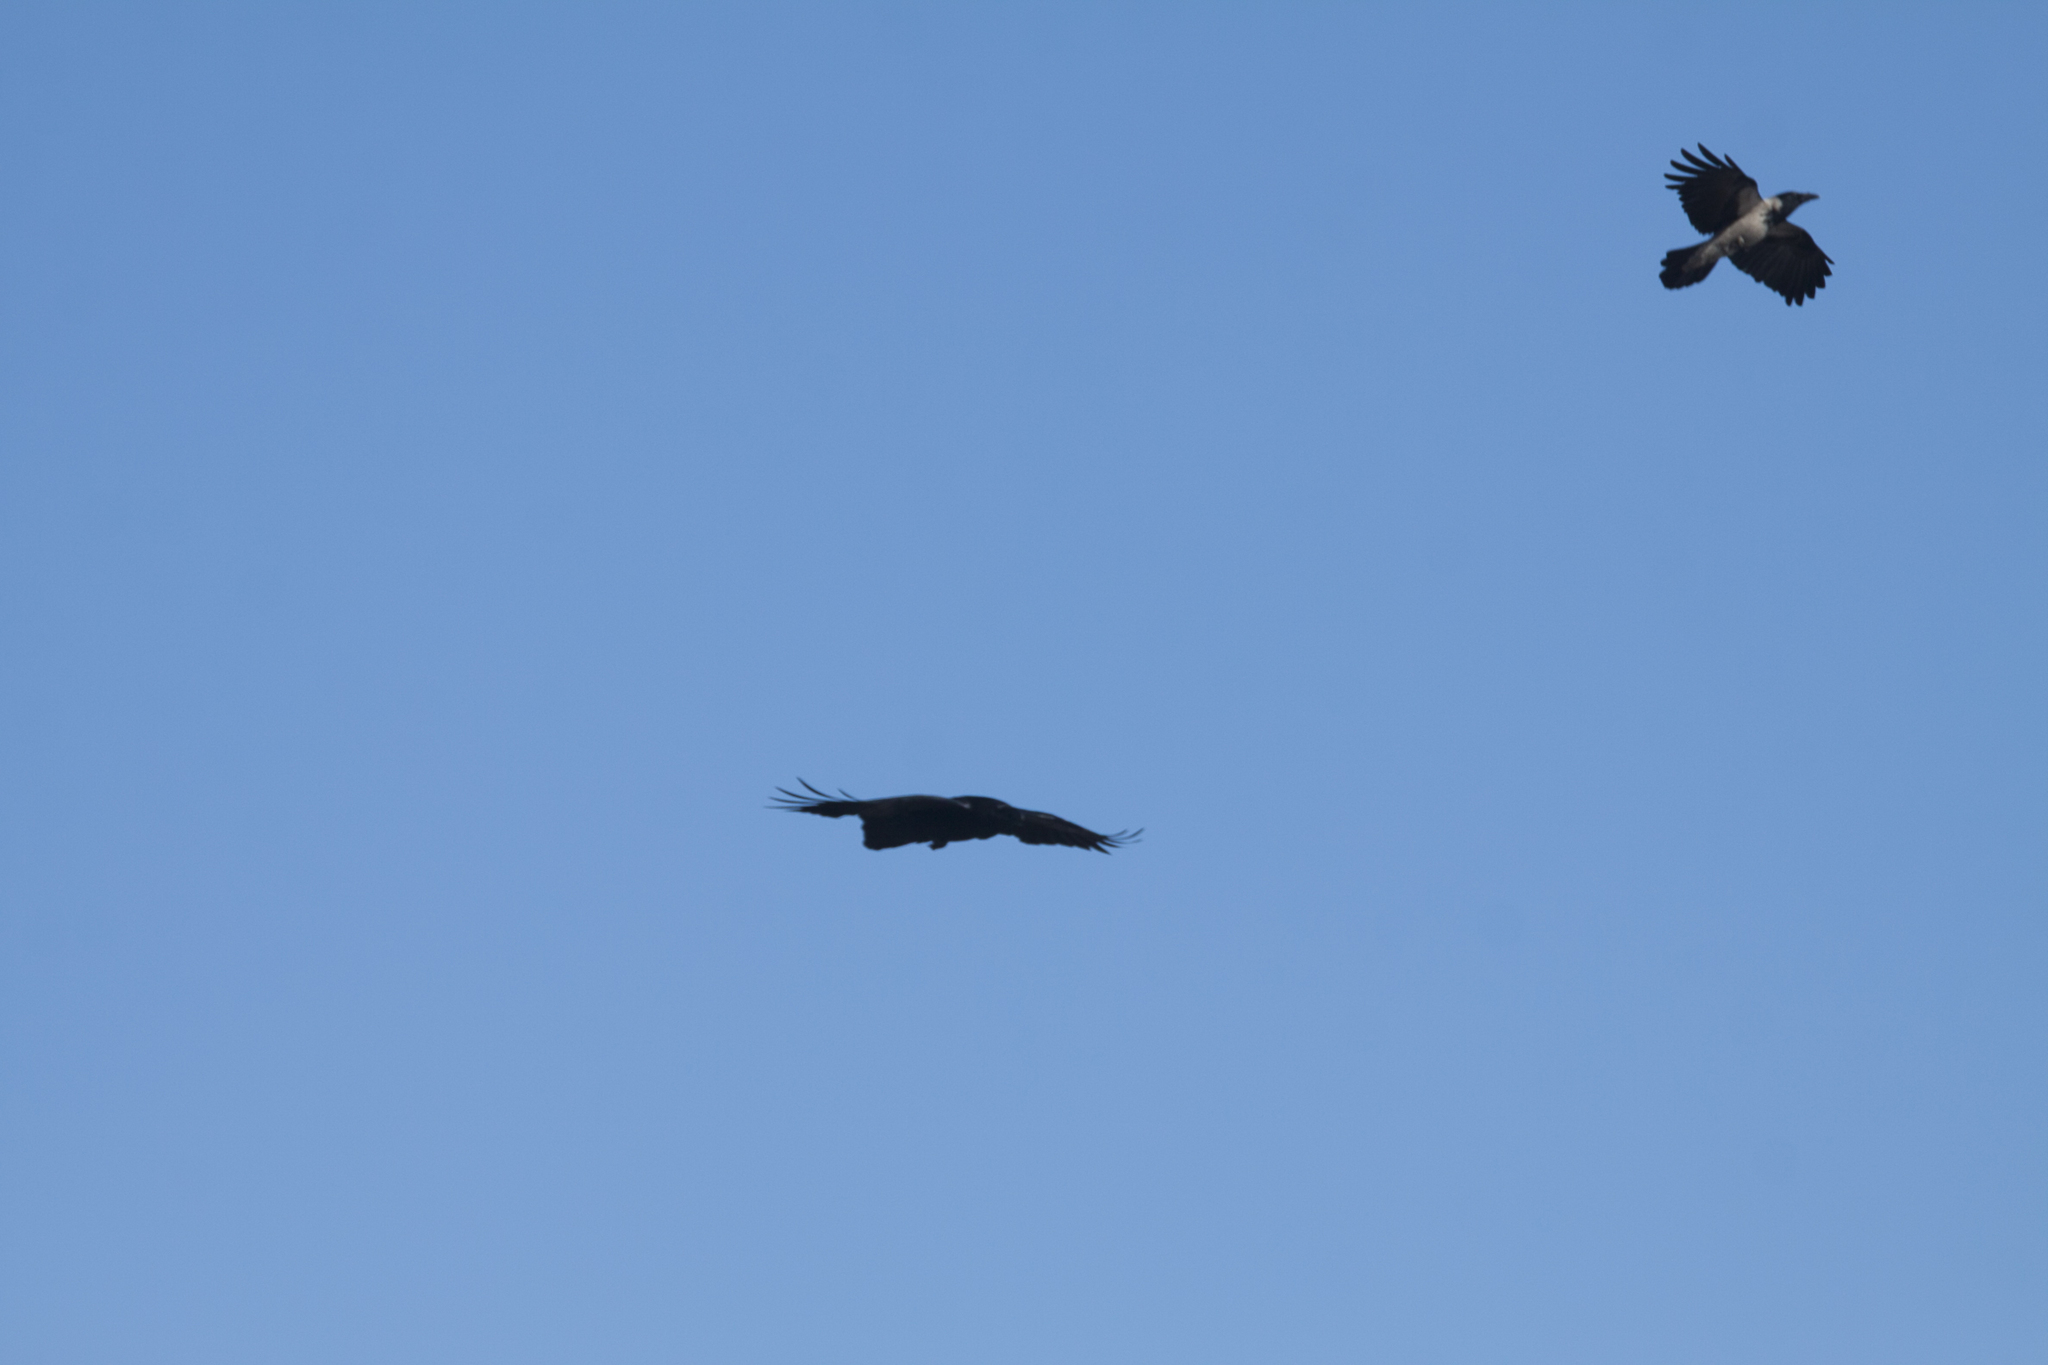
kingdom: Animalia
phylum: Chordata
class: Aves
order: Passeriformes
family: Corvidae
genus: Corvus
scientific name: Corvus cornix
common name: Hooded crow
